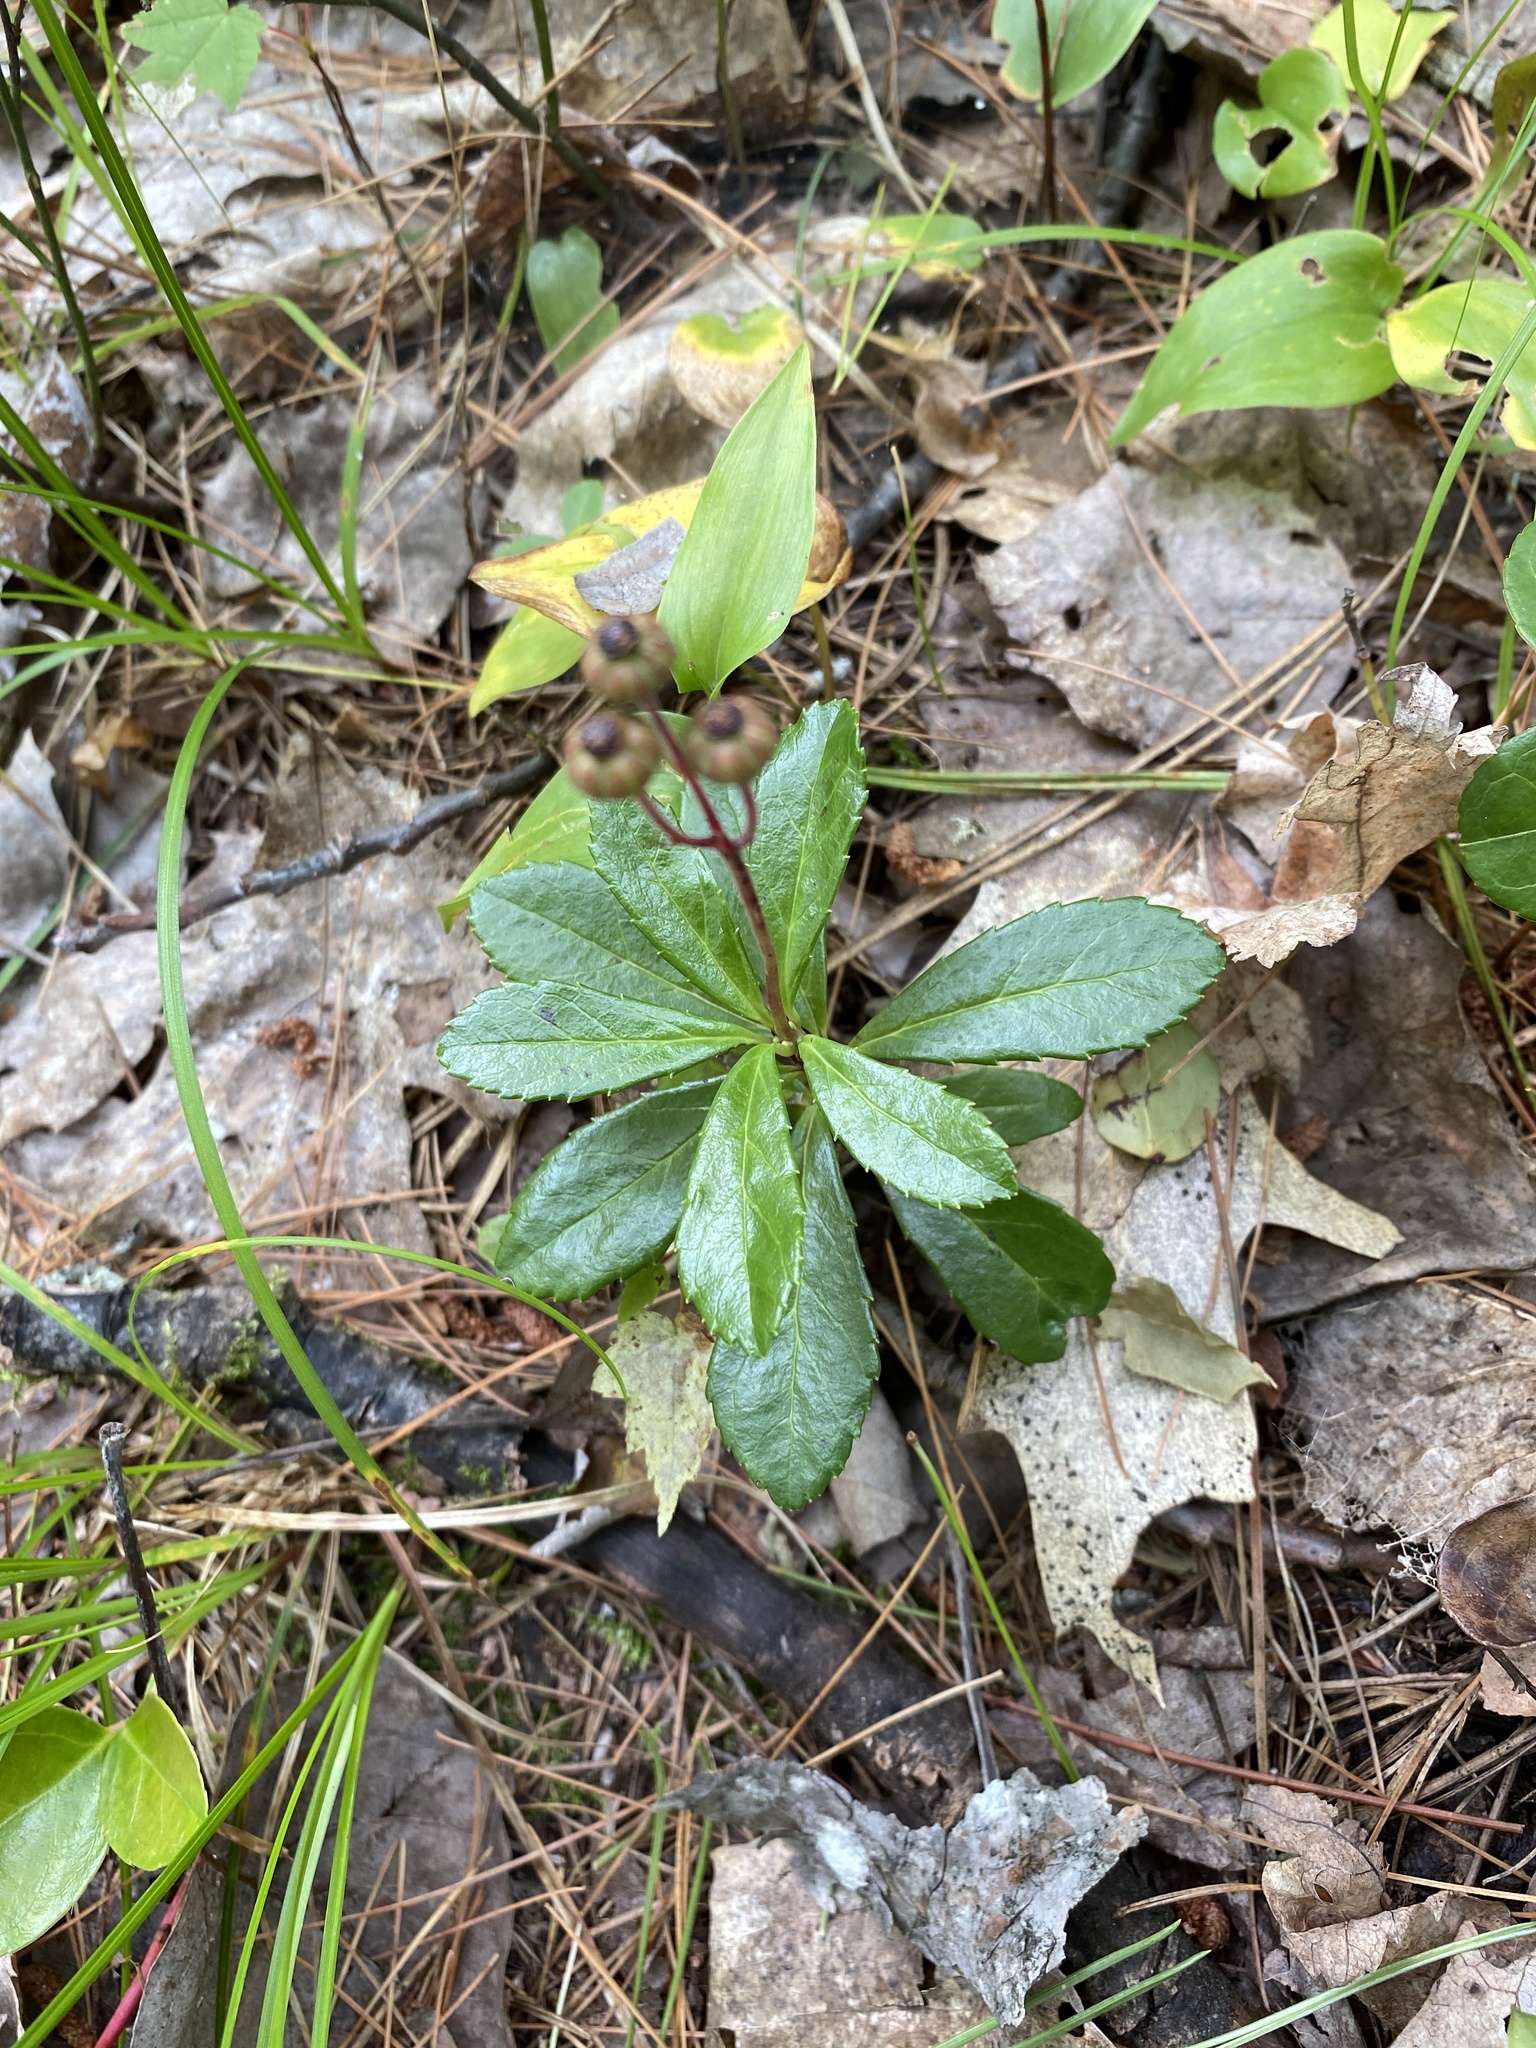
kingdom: Plantae
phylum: Tracheophyta
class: Magnoliopsida
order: Ericales
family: Ericaceae
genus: Chimaphila
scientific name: Chimaphila umbellata
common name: Pipsissewa
